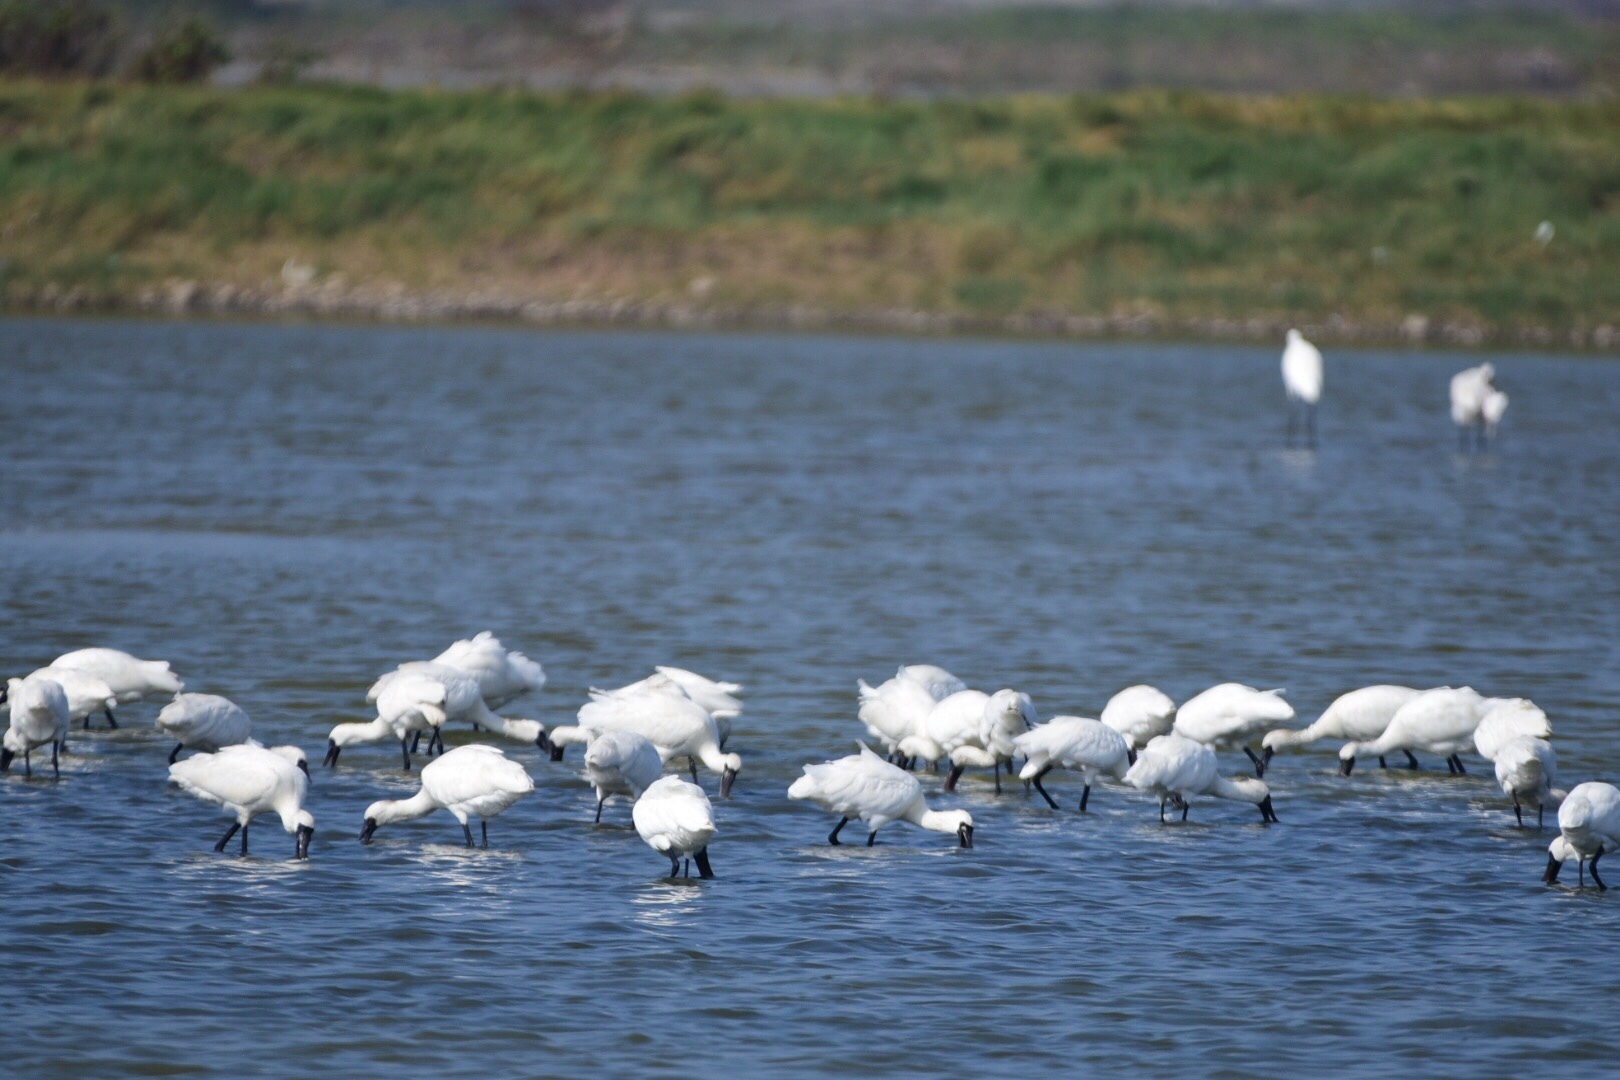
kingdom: Animalia
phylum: Chordata
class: Aves
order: Pelecaniformes
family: Threskiornithidae
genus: Platalea
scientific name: Platalea minor
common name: Black-faced spoonbill
